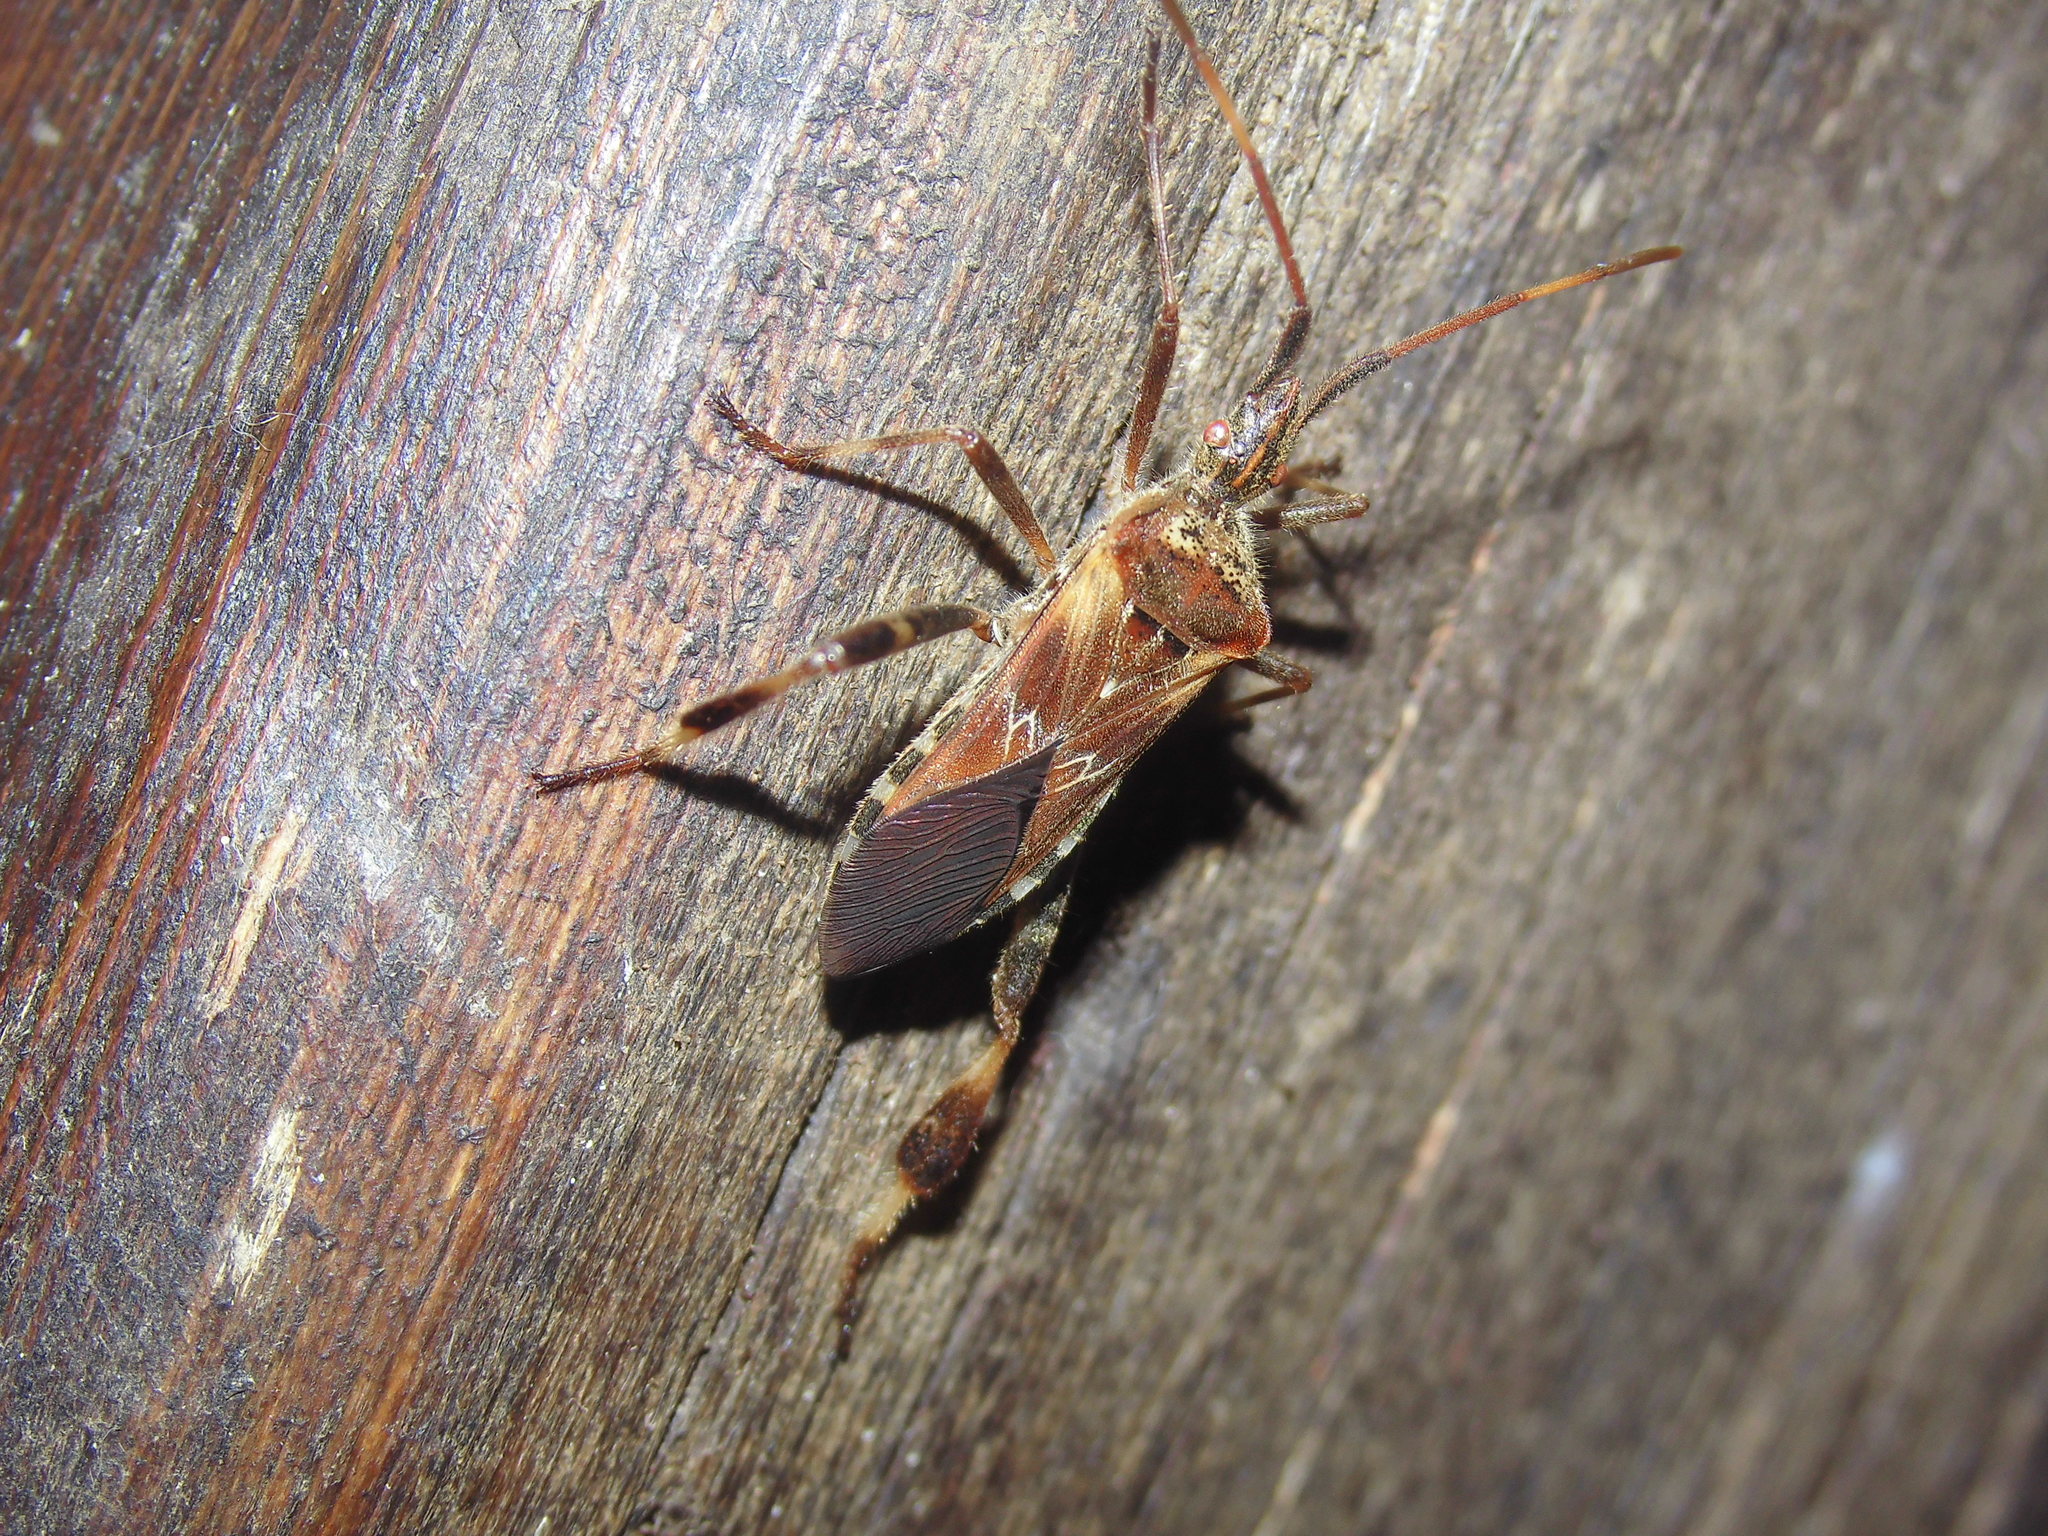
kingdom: Animalia
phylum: Arthropoda
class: Insecta
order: Hemiptera
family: Coreidae
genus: Leptoglossus
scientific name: Leptoglossus occidentalis
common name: Western conifer-seed bug
